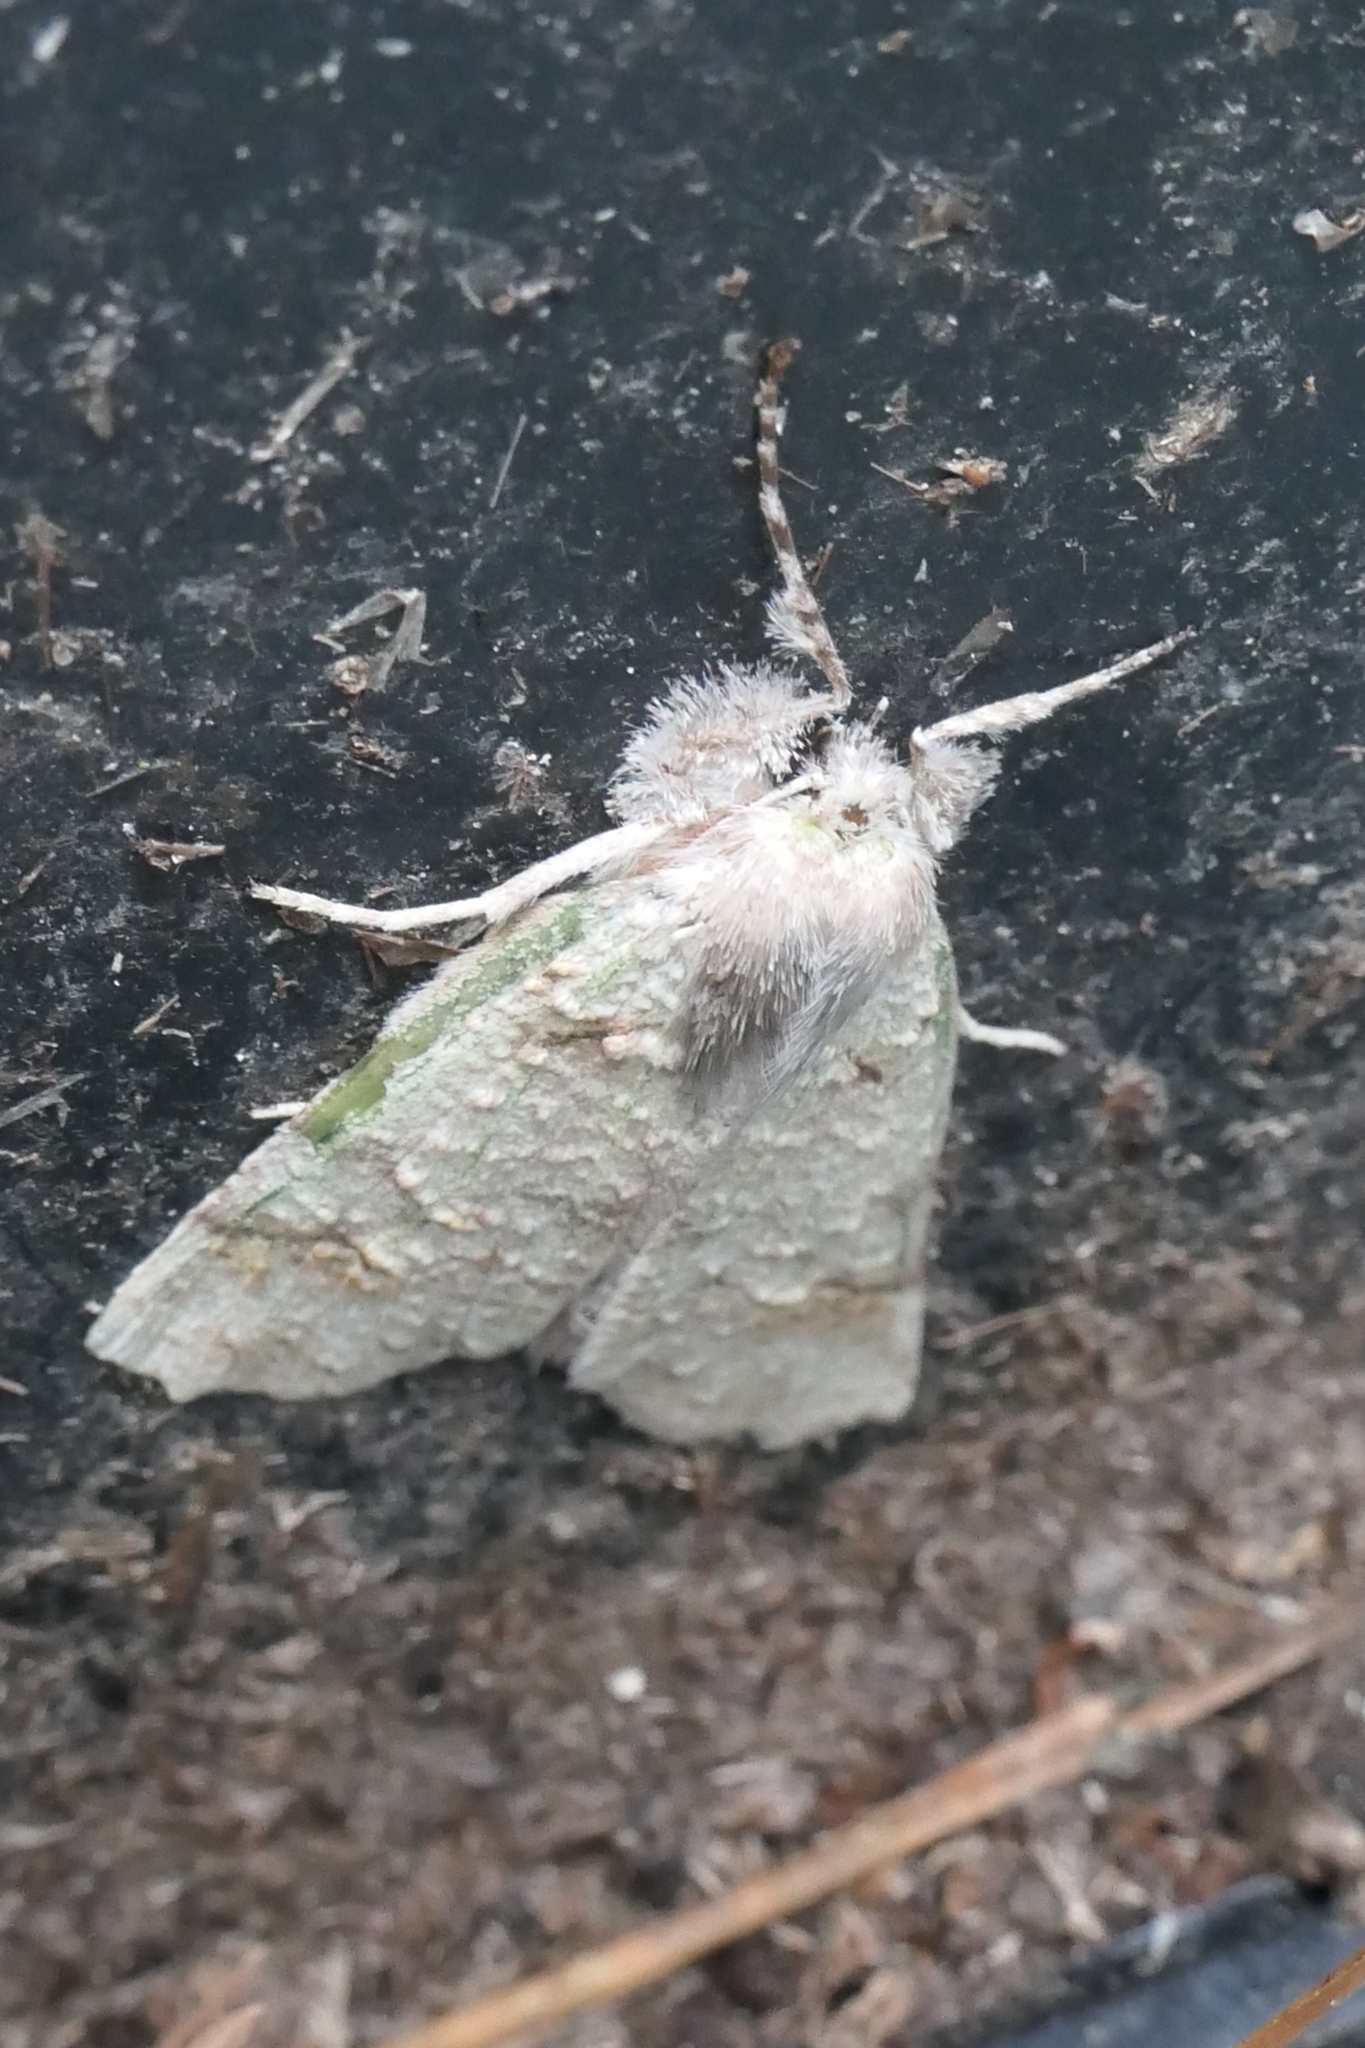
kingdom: Animalia
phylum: Arthropoda
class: Insecta
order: Lepidoptera
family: Geometridae
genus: Declana
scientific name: Declana floccosa
